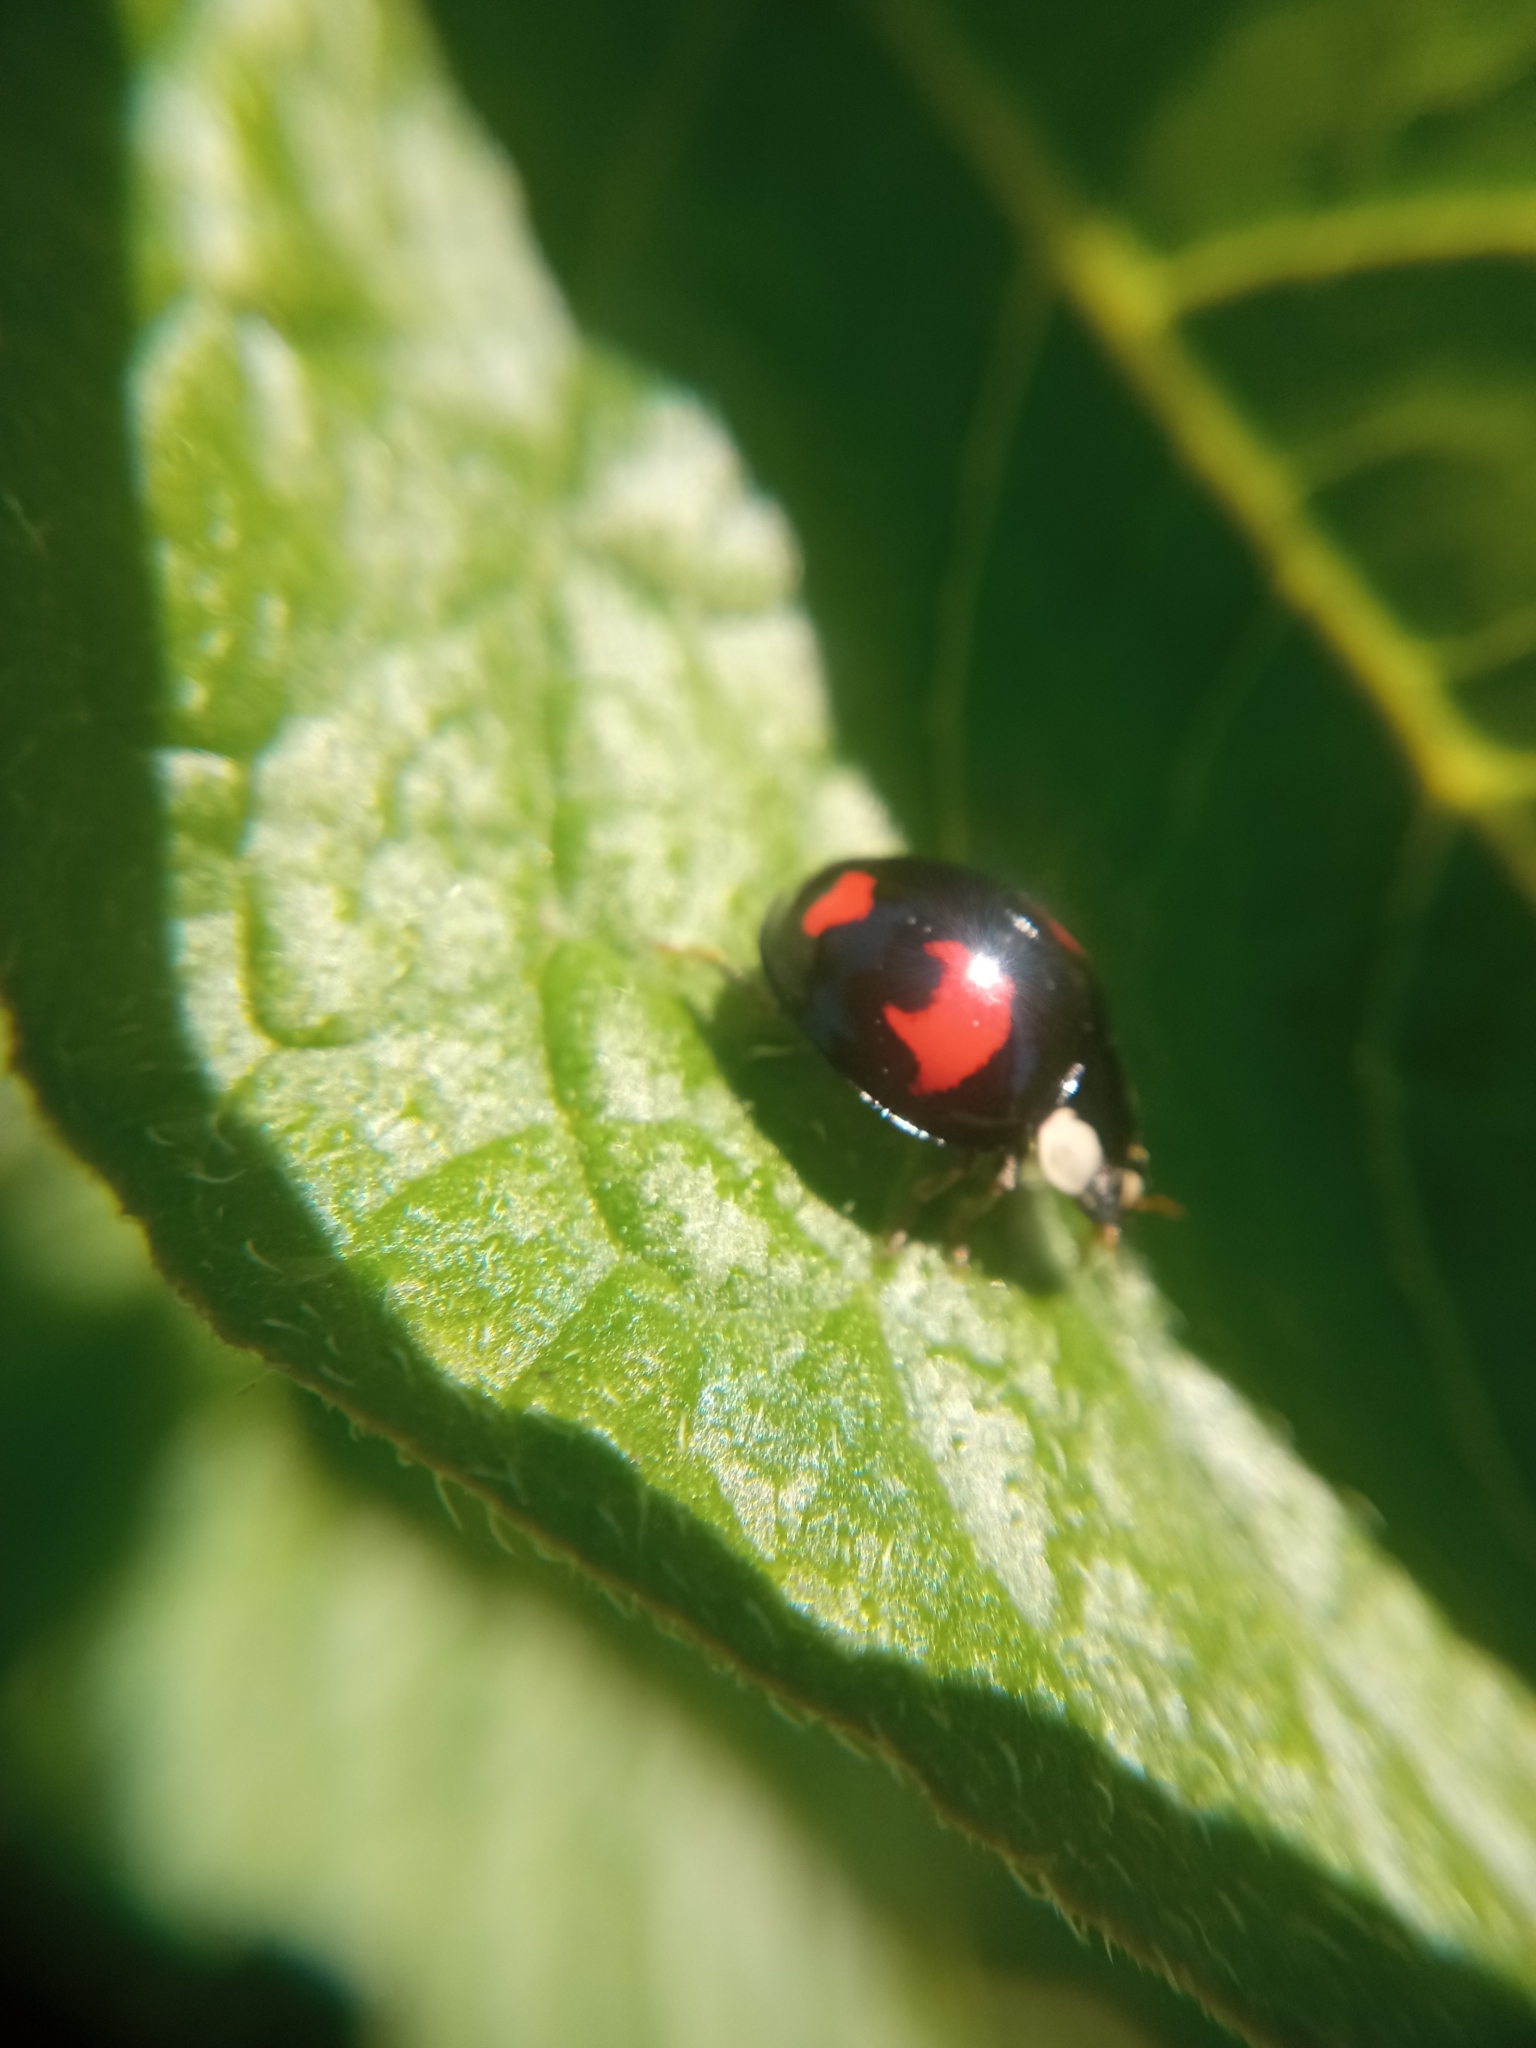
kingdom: Animalia
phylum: Arthropoda
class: Insecta
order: Coleoptera
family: Coccinellidae
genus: Harmonia
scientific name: Harmonia axyridis
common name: Harlequin ladybird
